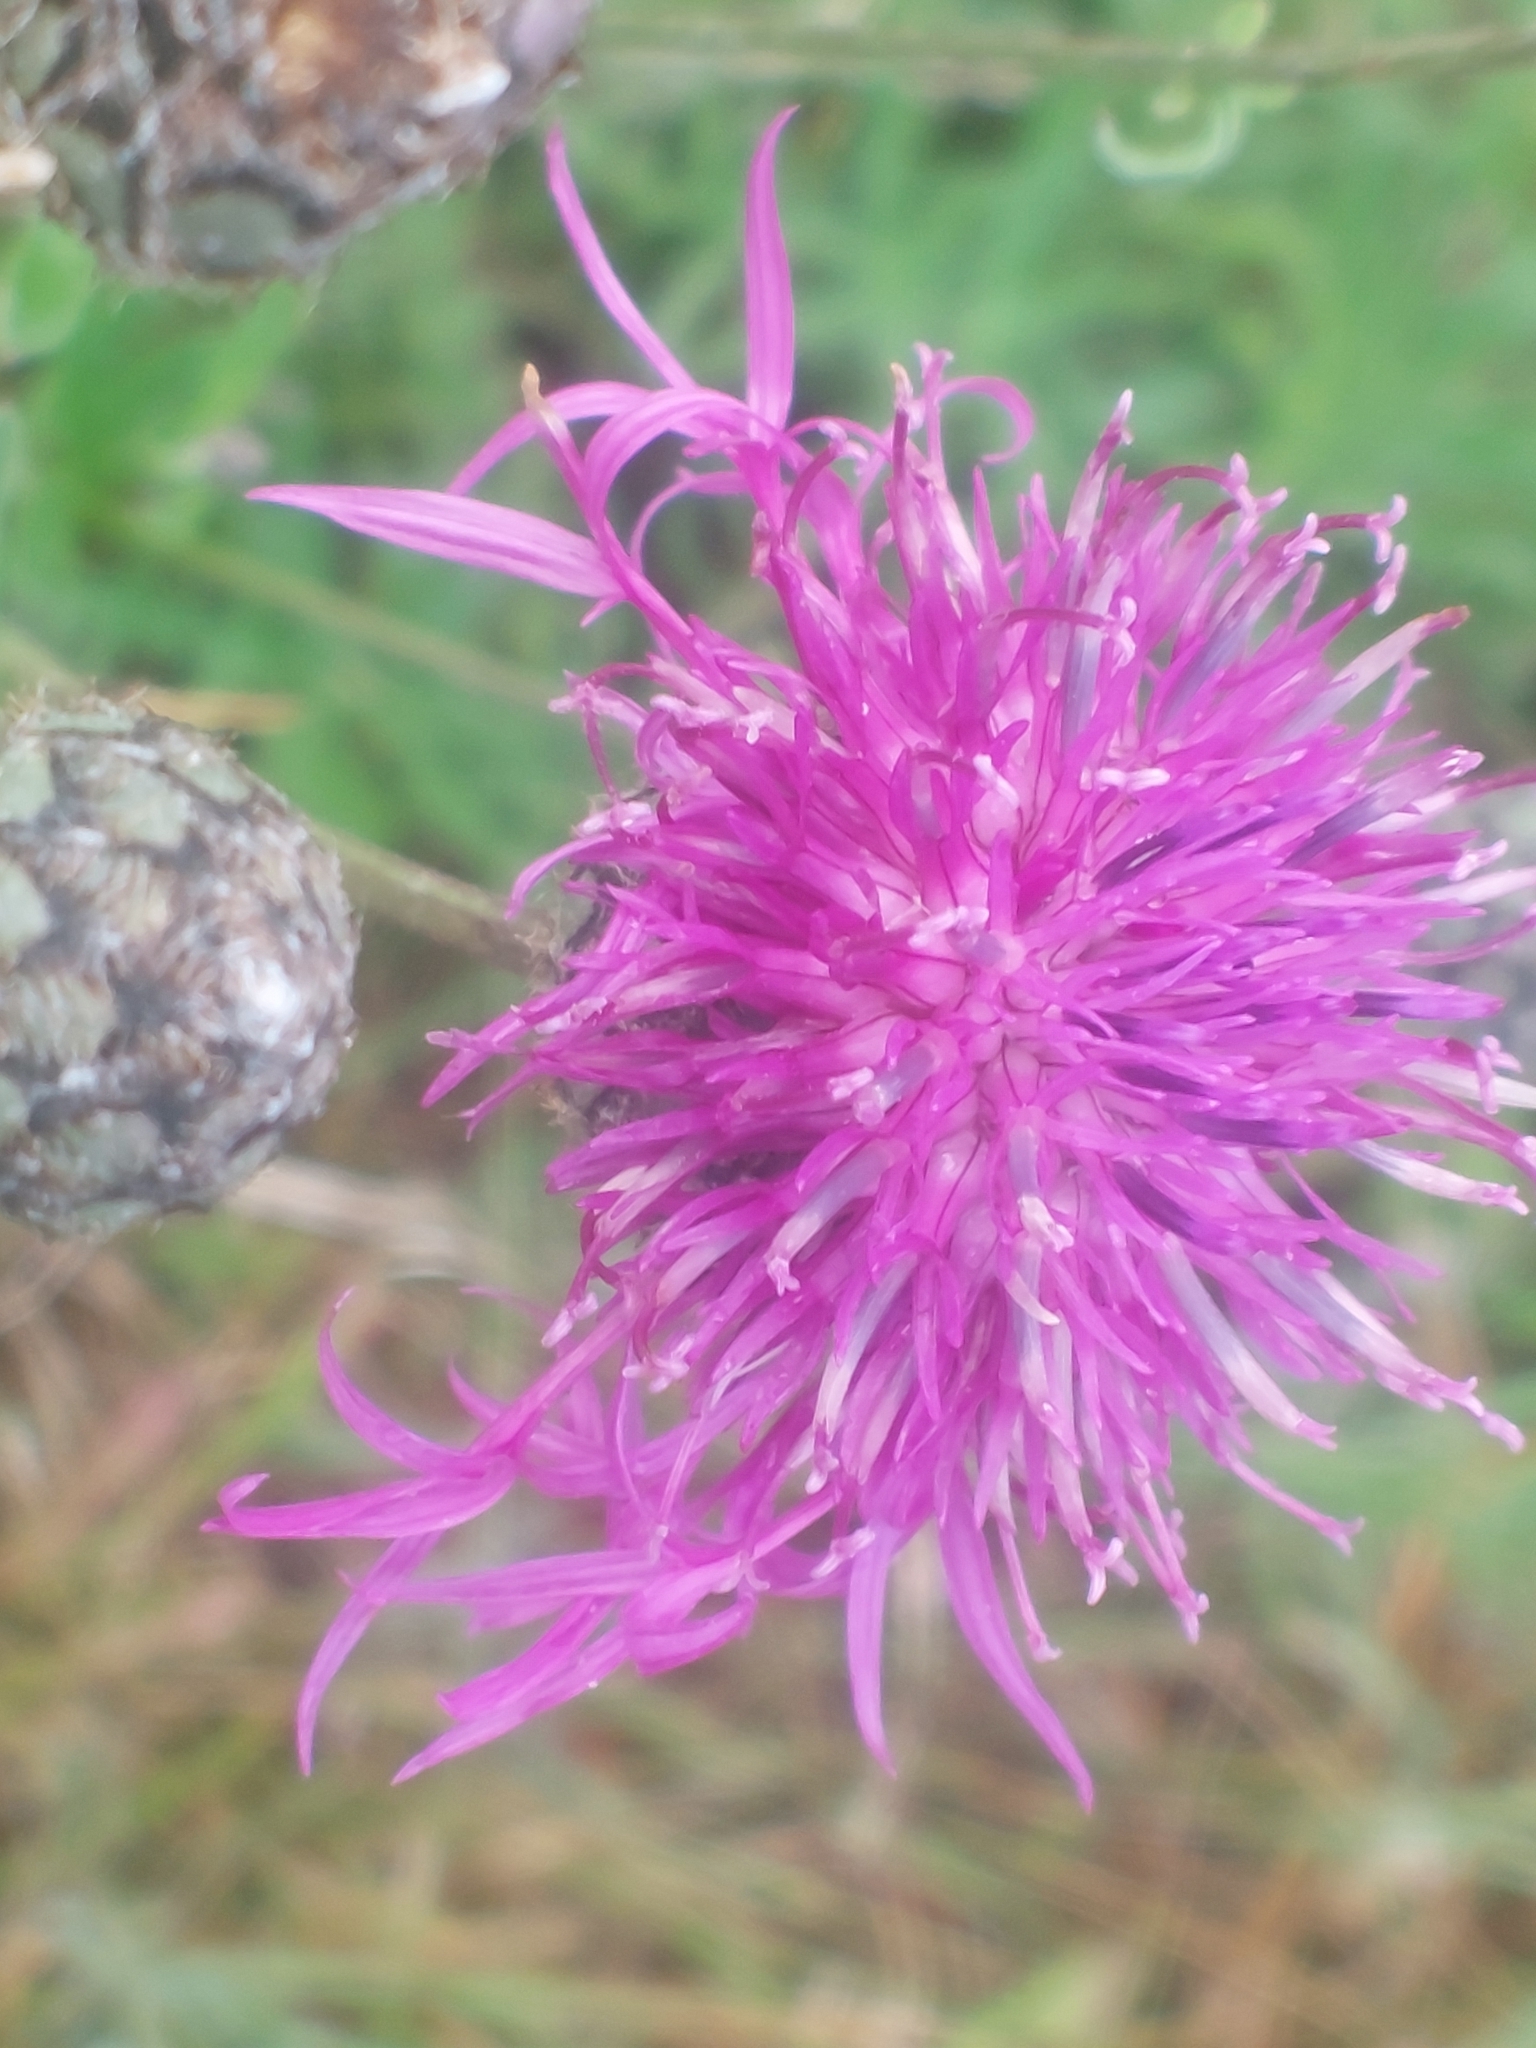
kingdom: Plantae
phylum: Tracheophyta
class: Magnoliopsida
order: Asterales
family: Asteraceae
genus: Centaurea
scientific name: Centaurea scabiosa
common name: Greater knapweed
